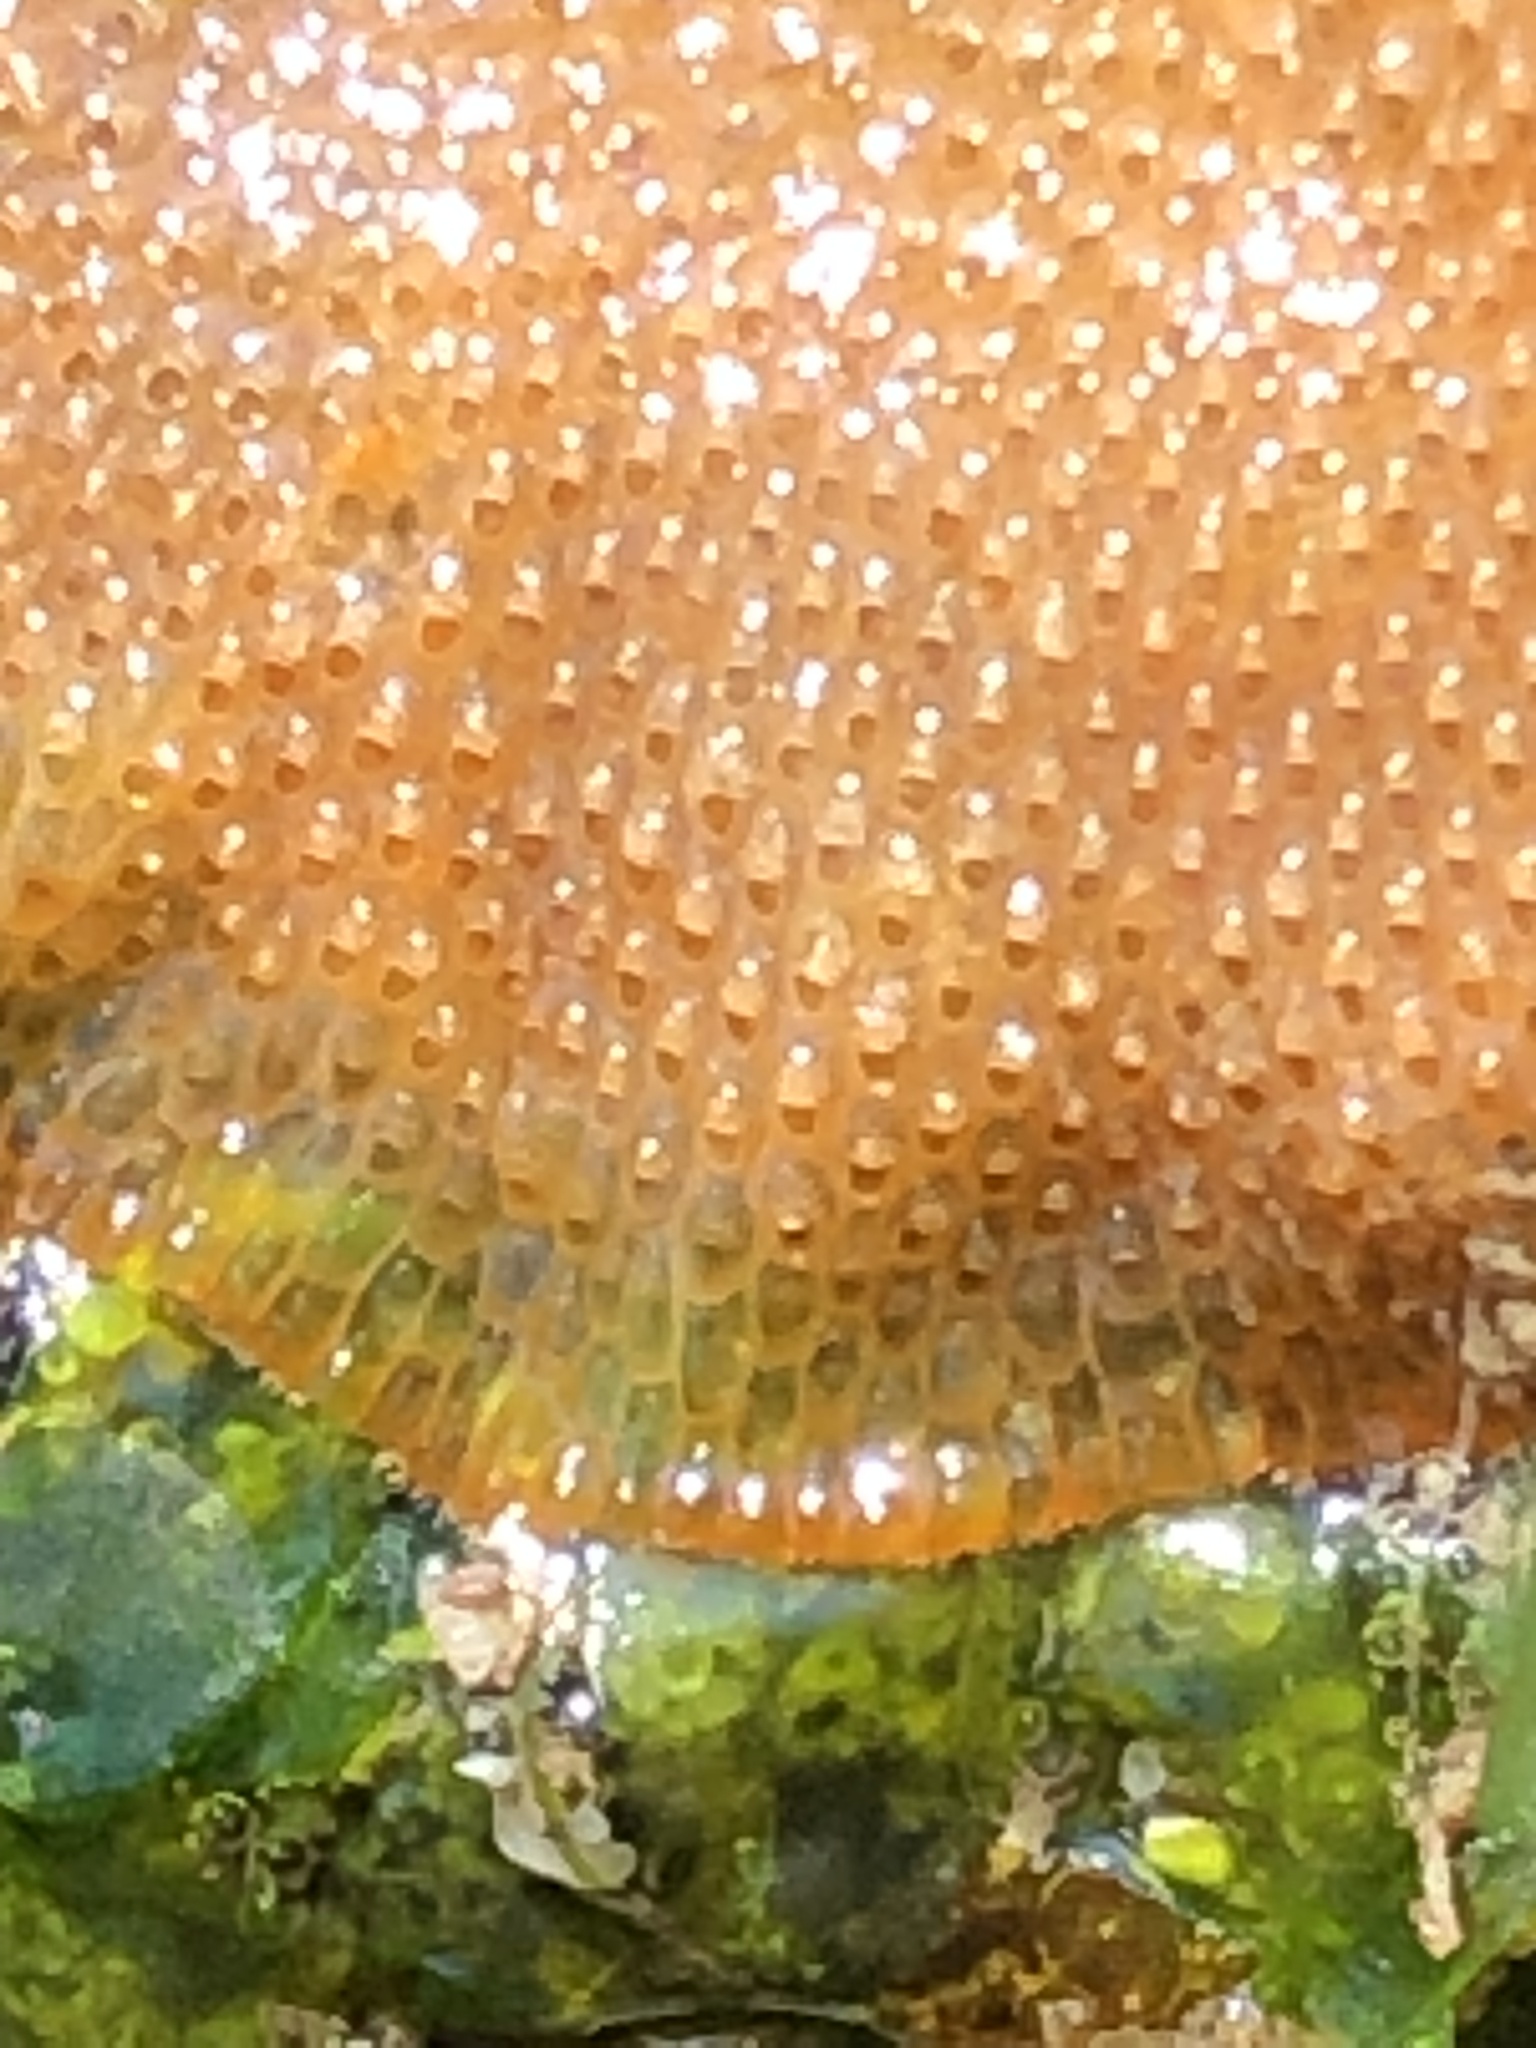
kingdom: Animalia
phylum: Bryozoa
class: Gymnolaemata
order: Cheilostomatida
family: Eurystomellidae
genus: Integripelta
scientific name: Integripelta bilabiata
